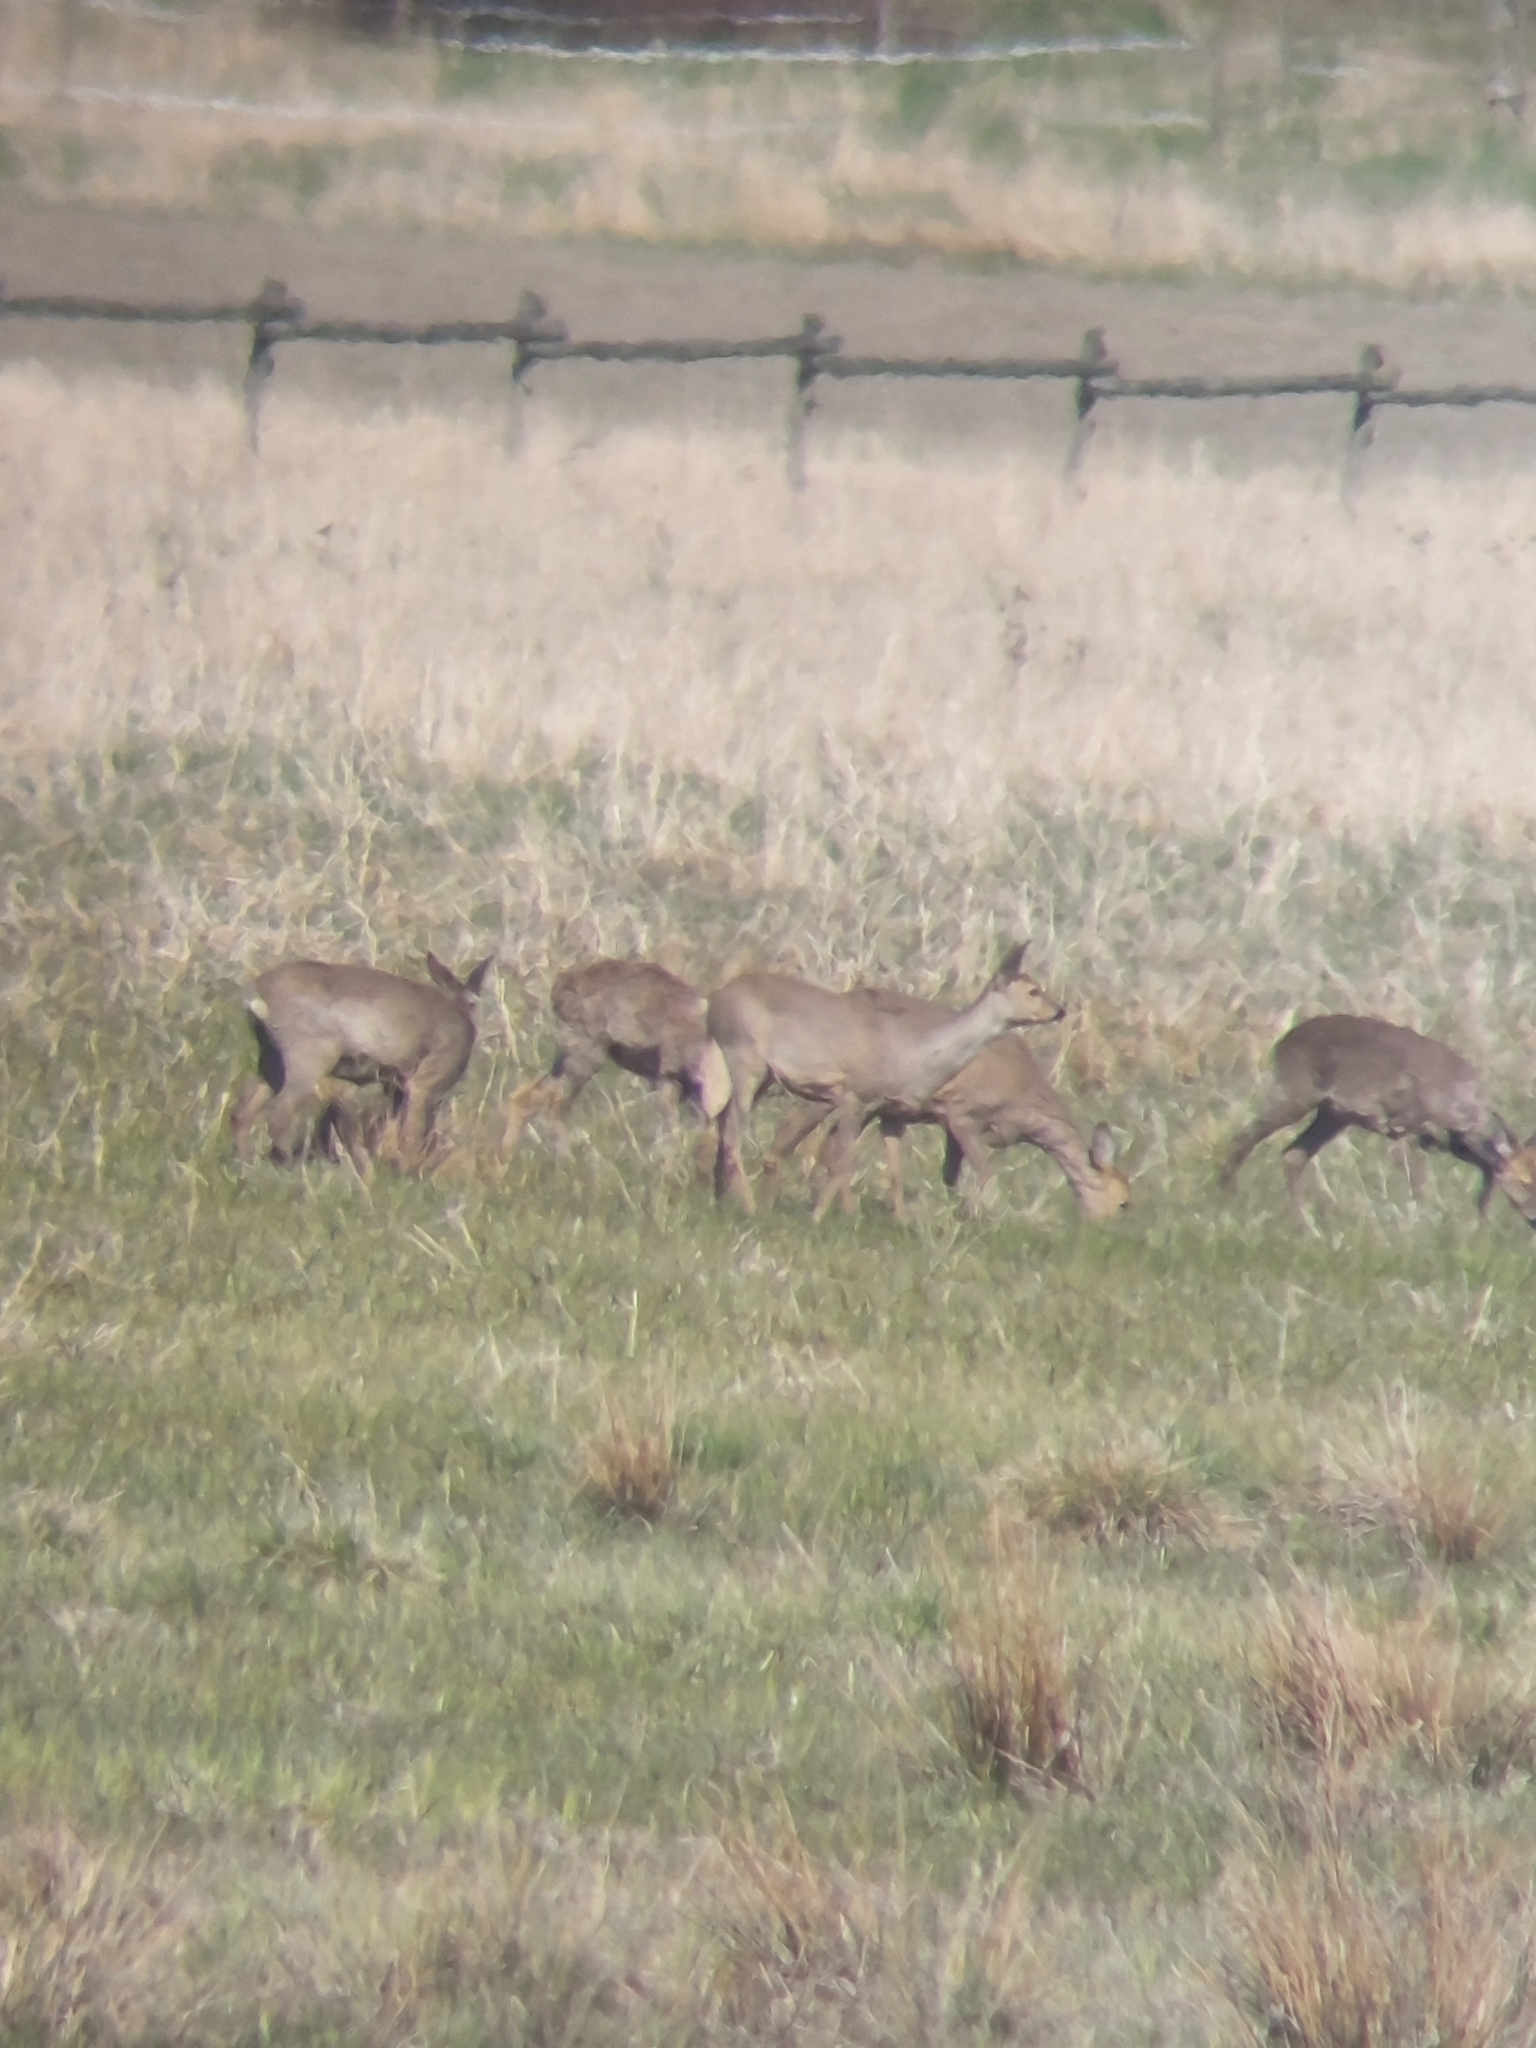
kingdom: Animalia
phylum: Chordata
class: Mammalia
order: Artiodactyla
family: Cervidae
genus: Capreolus
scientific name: Capreolus capreolus
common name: Western roe deer
